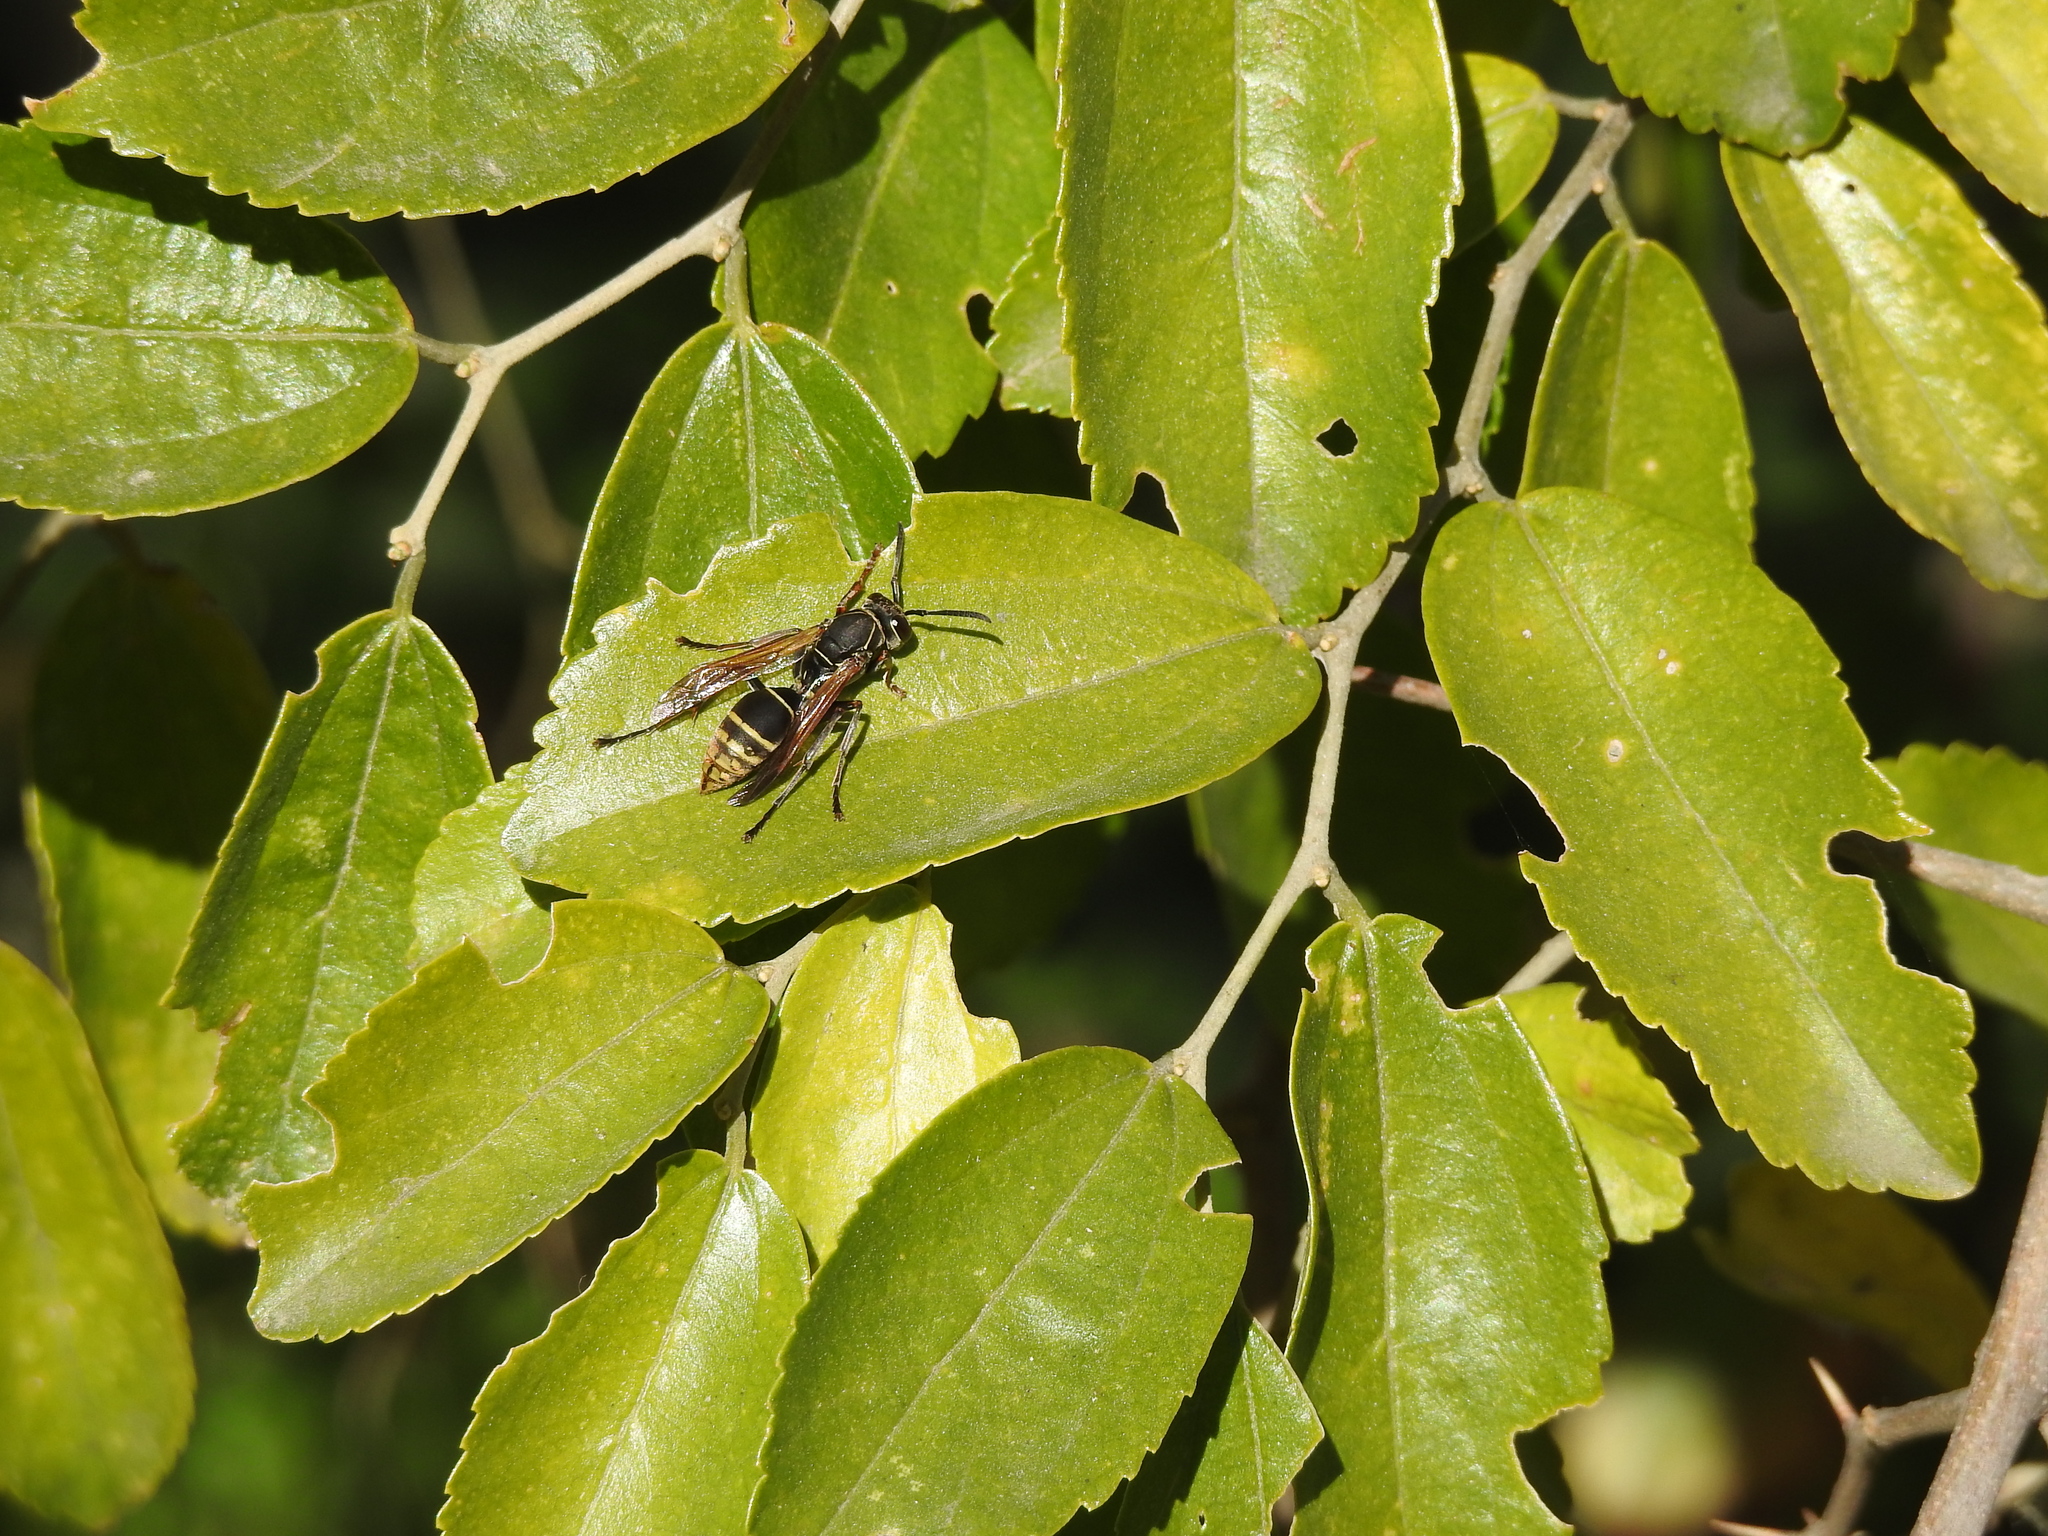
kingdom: Animalia
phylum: Arthropoda
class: Insecta
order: Hymenoptera
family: Eumenidae
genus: Polistes
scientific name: Polistes cinerascens
